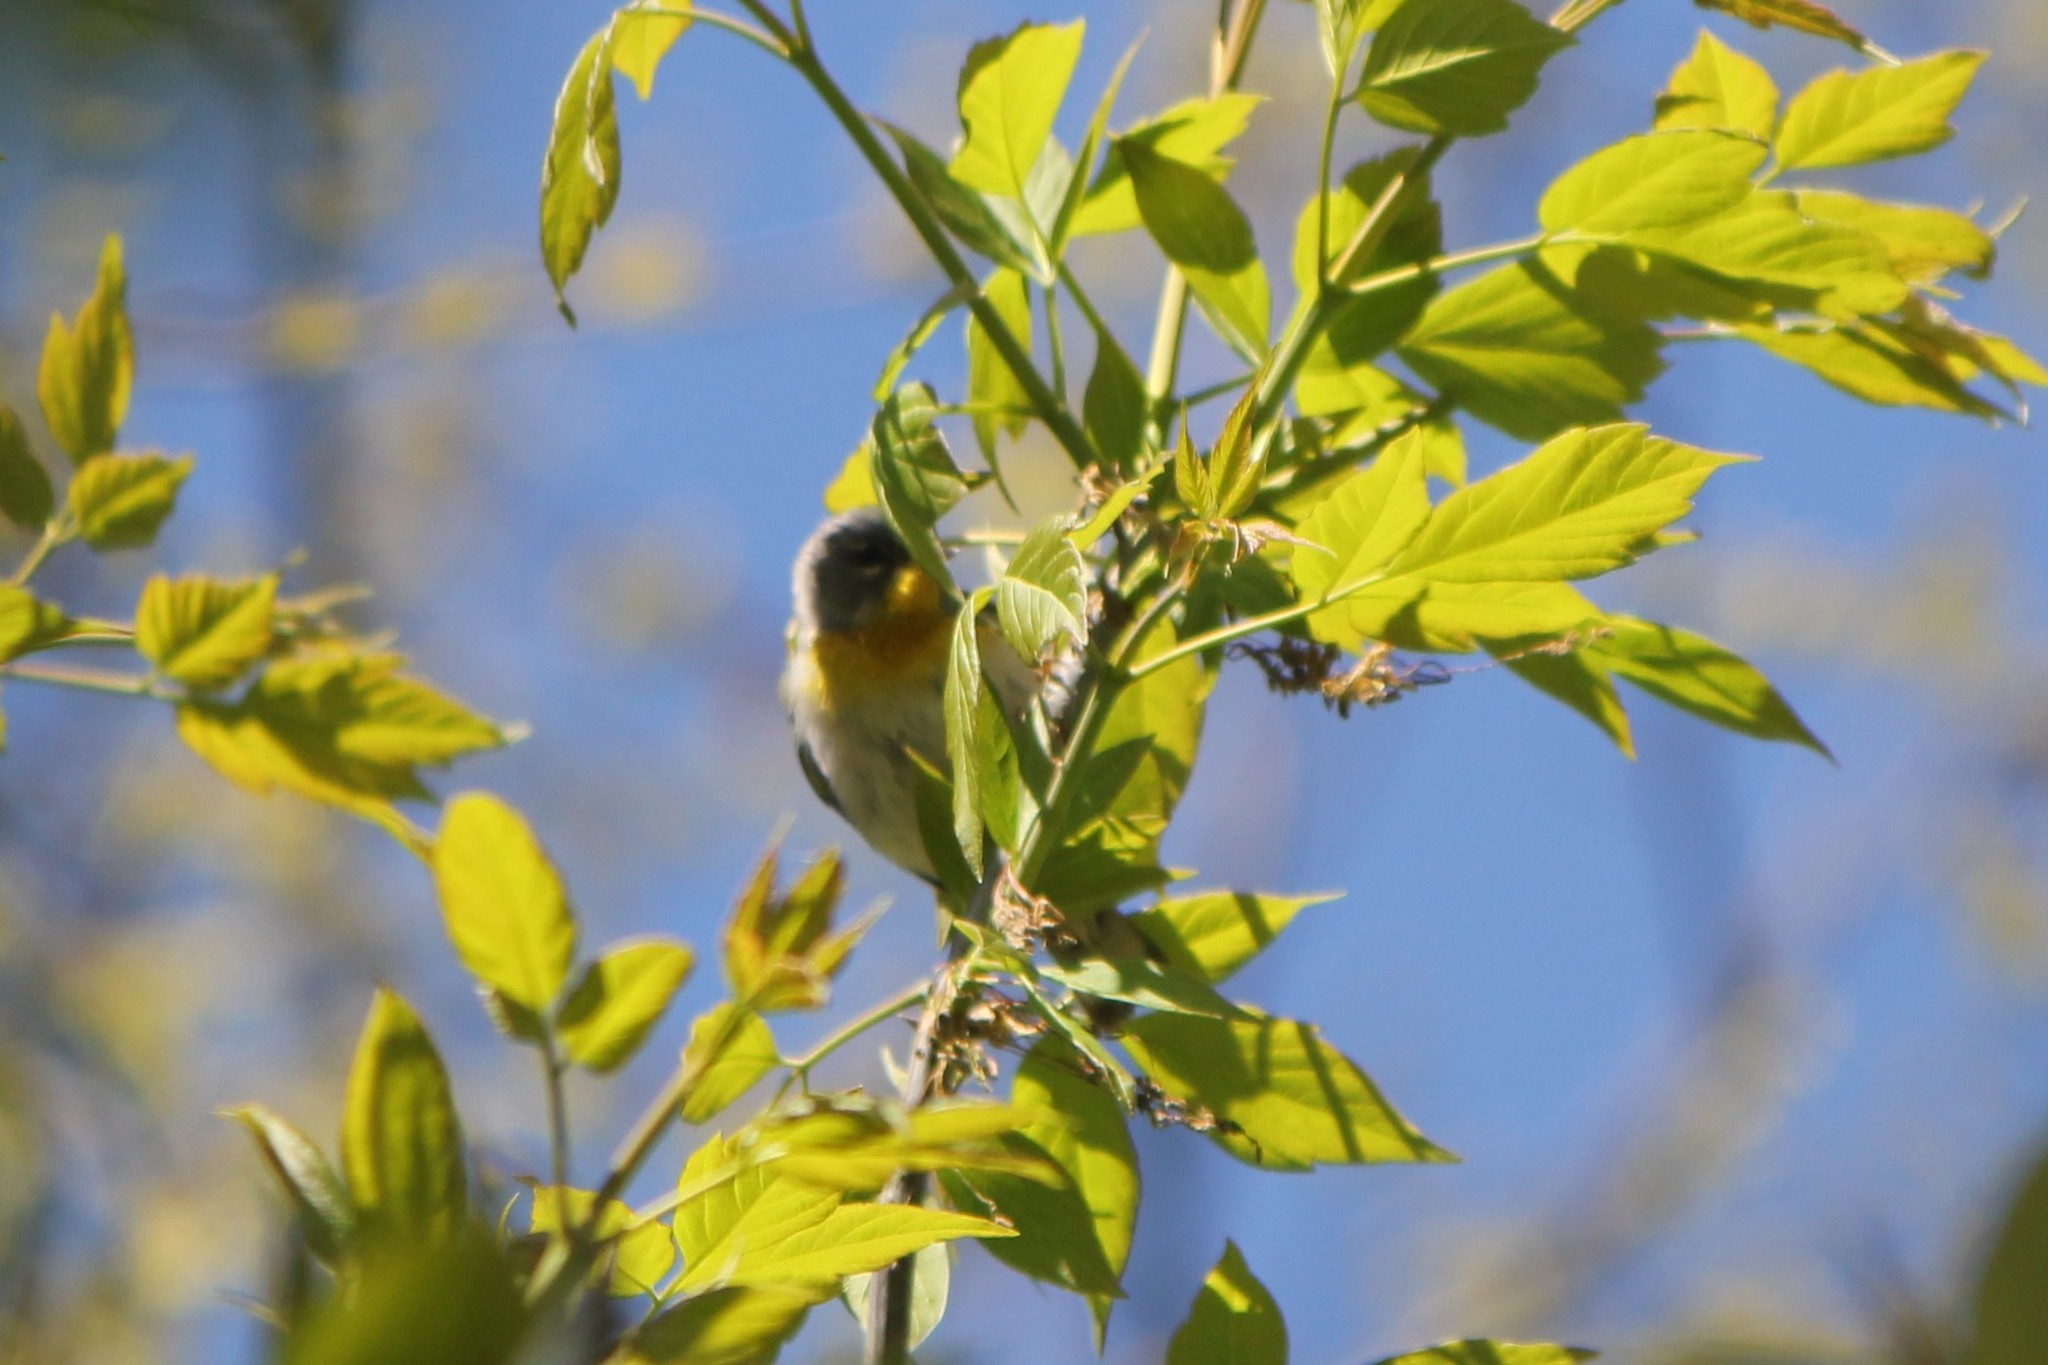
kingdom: Animalia
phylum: Chordata
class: Aves
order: Passeriformes
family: Parulidae
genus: Setophaga
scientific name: Setophaga americana
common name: Northern parula
